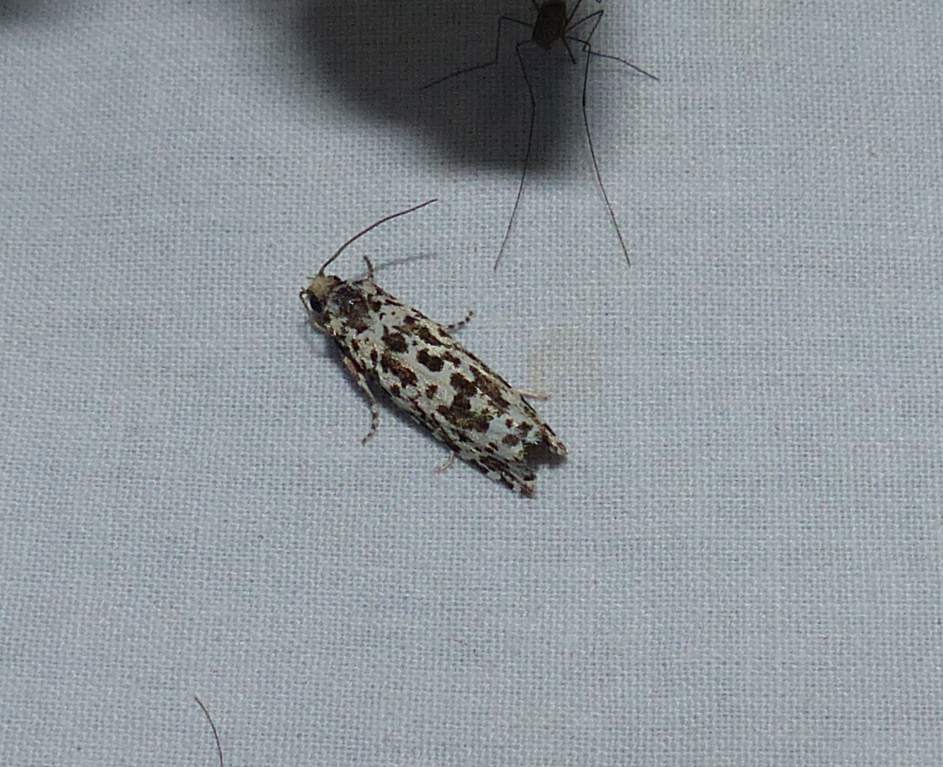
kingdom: Animalia
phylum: Arthropoda
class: Insecta
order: Lepidoptera
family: Tortricidae
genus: Retinia
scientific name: Retinia burkeana
